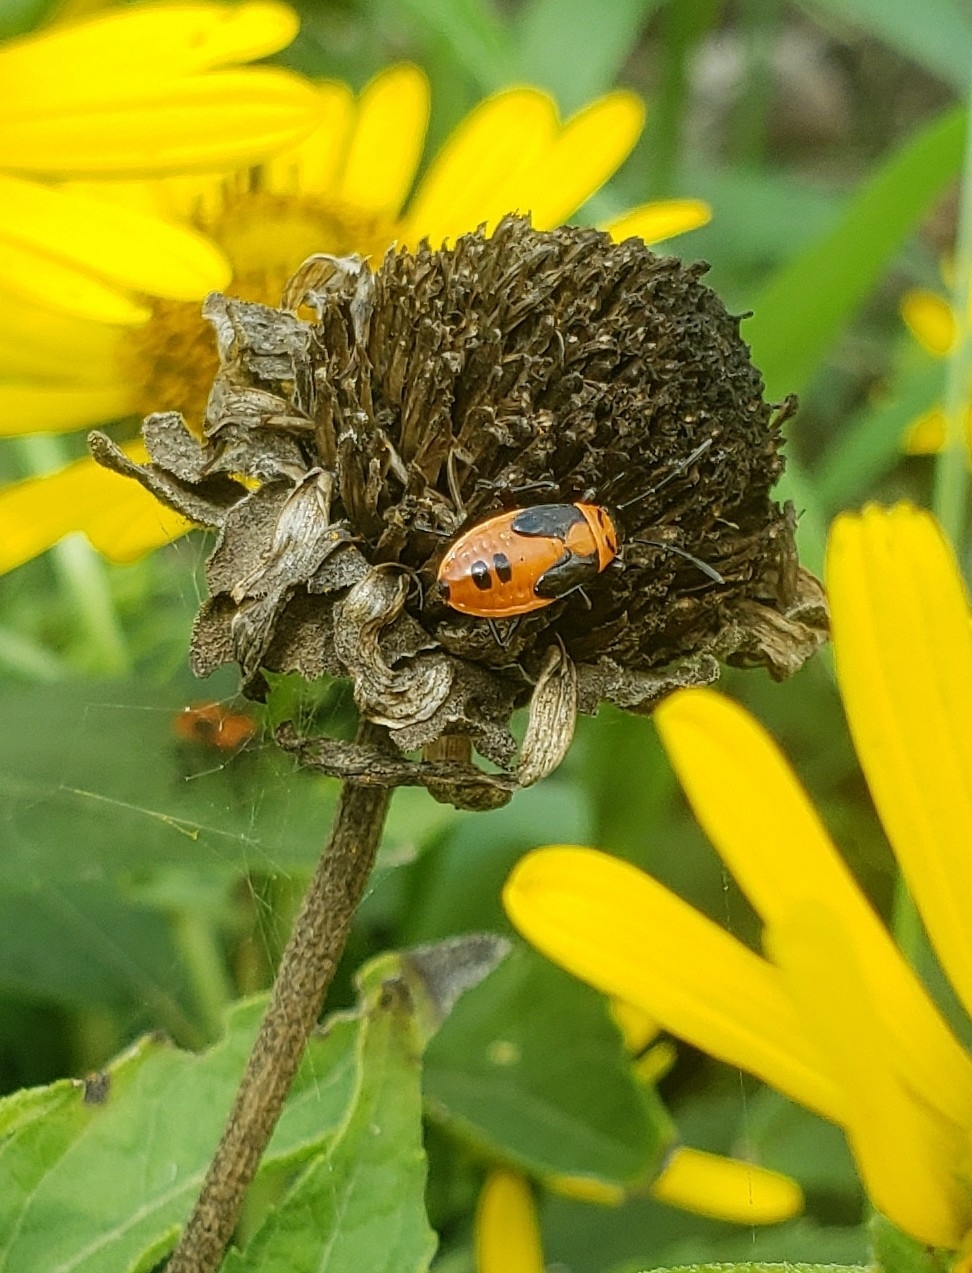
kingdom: Animalia
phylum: Arthropoda
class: Insecta
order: Hemiptera
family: Lygaeidae
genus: Lygaeus
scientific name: Lygaeus turcicus
